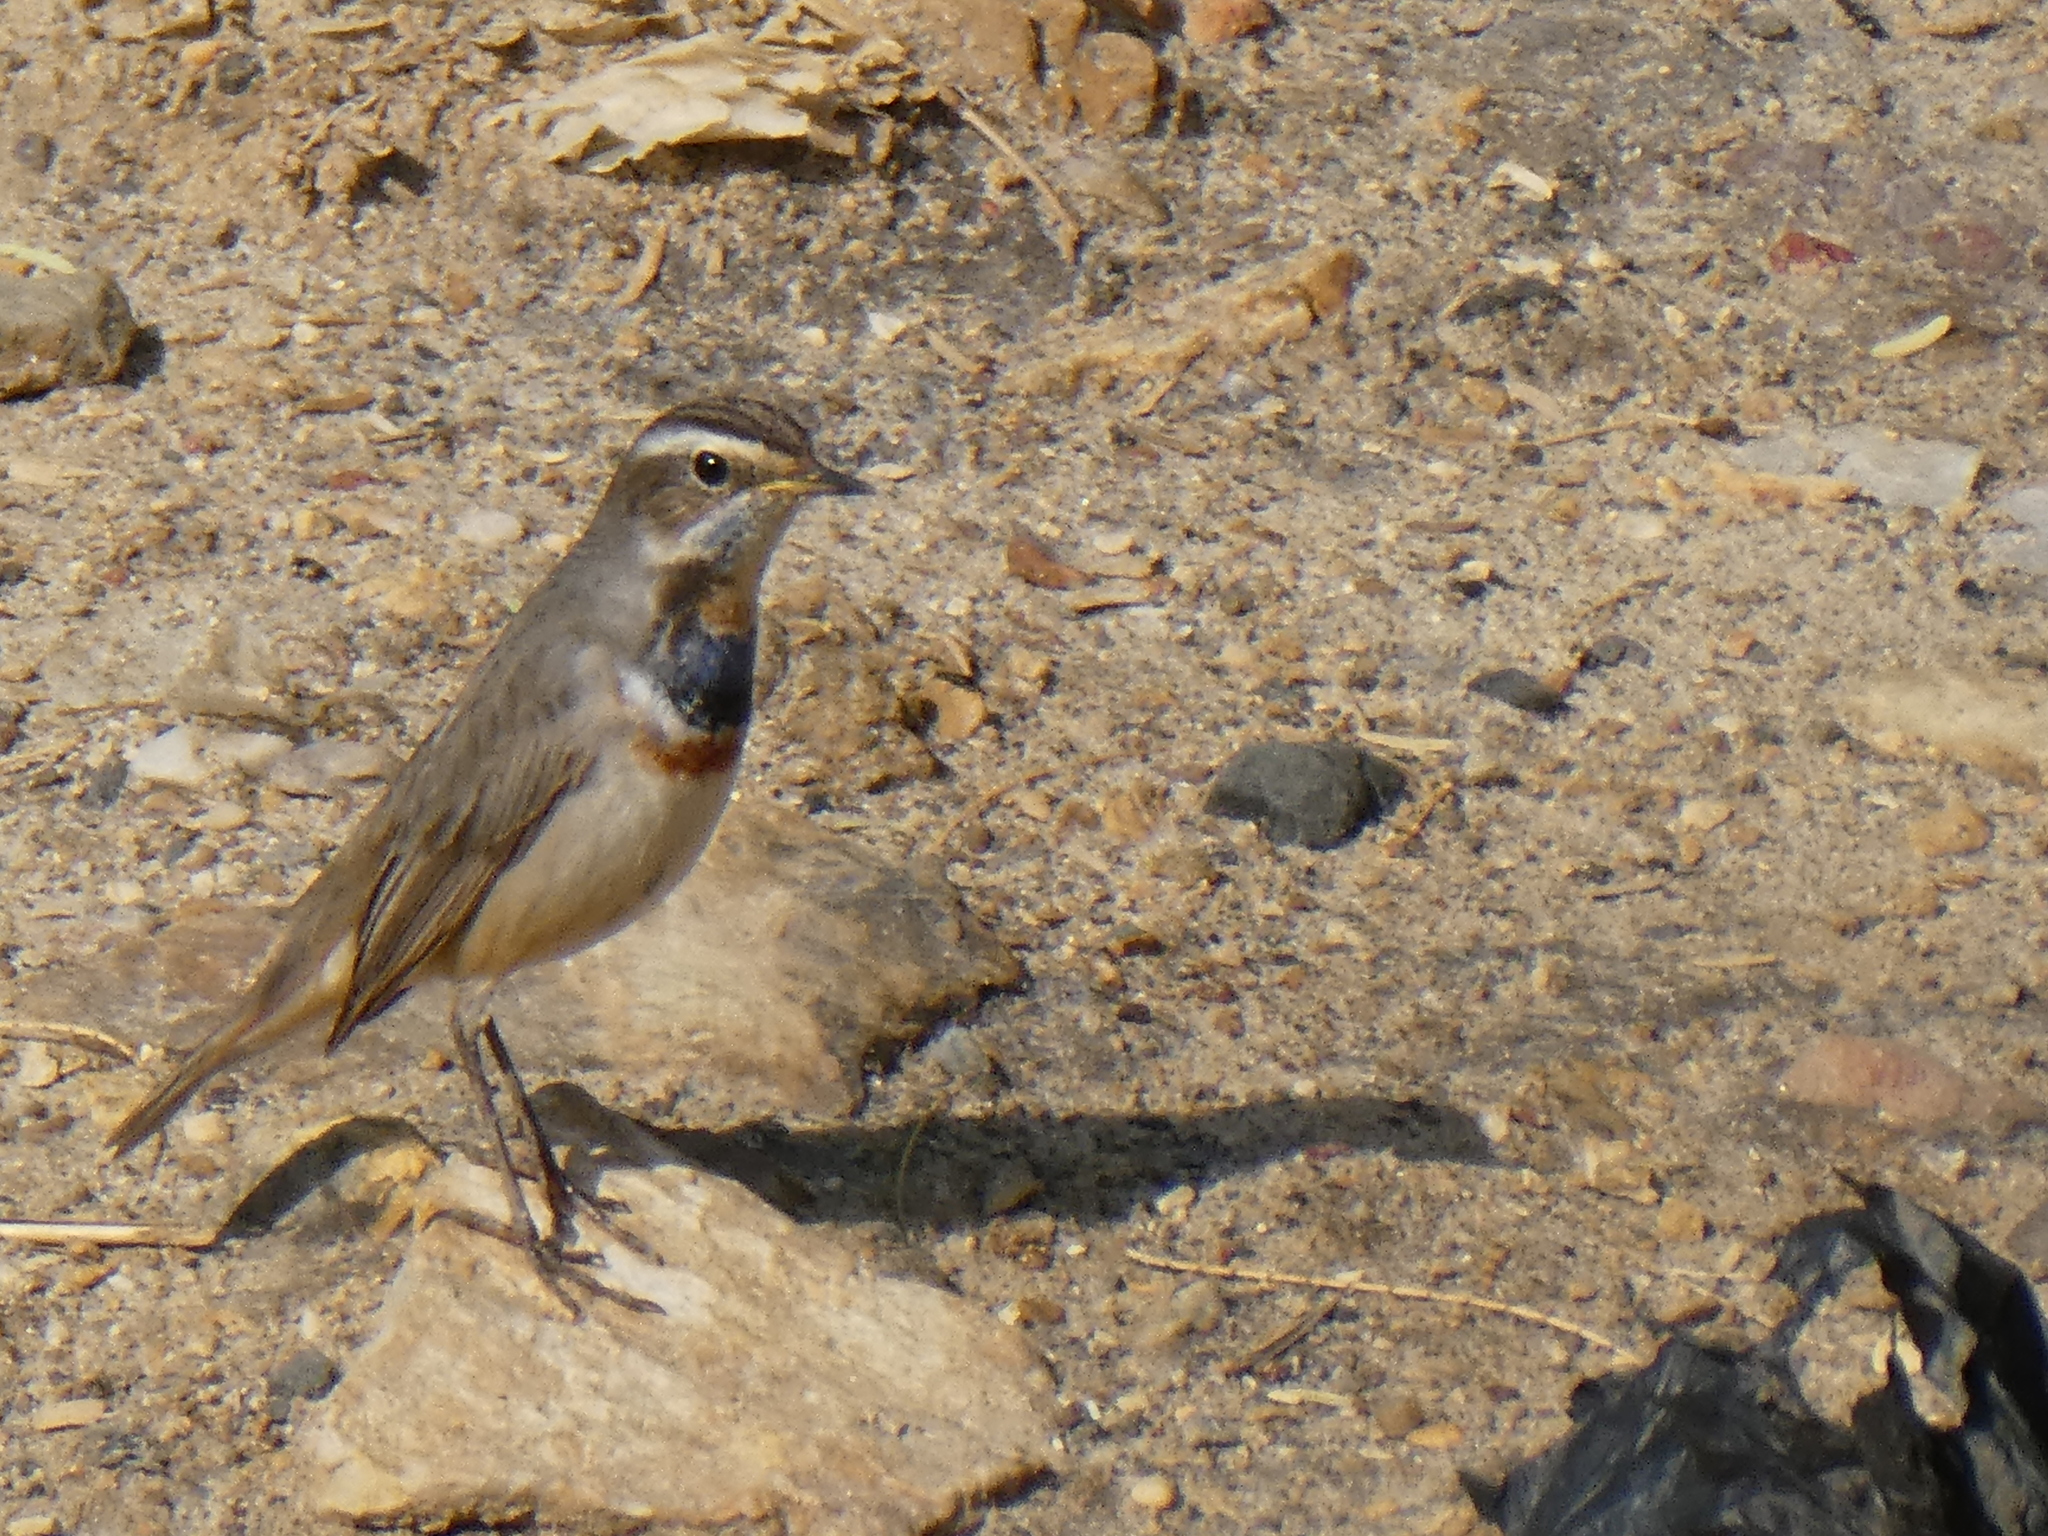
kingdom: Animalia
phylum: Chordata
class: Aves
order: Passeriformes
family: Muscicapidae
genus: Luscinia
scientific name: Luscinia svecica
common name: Bluethroat
